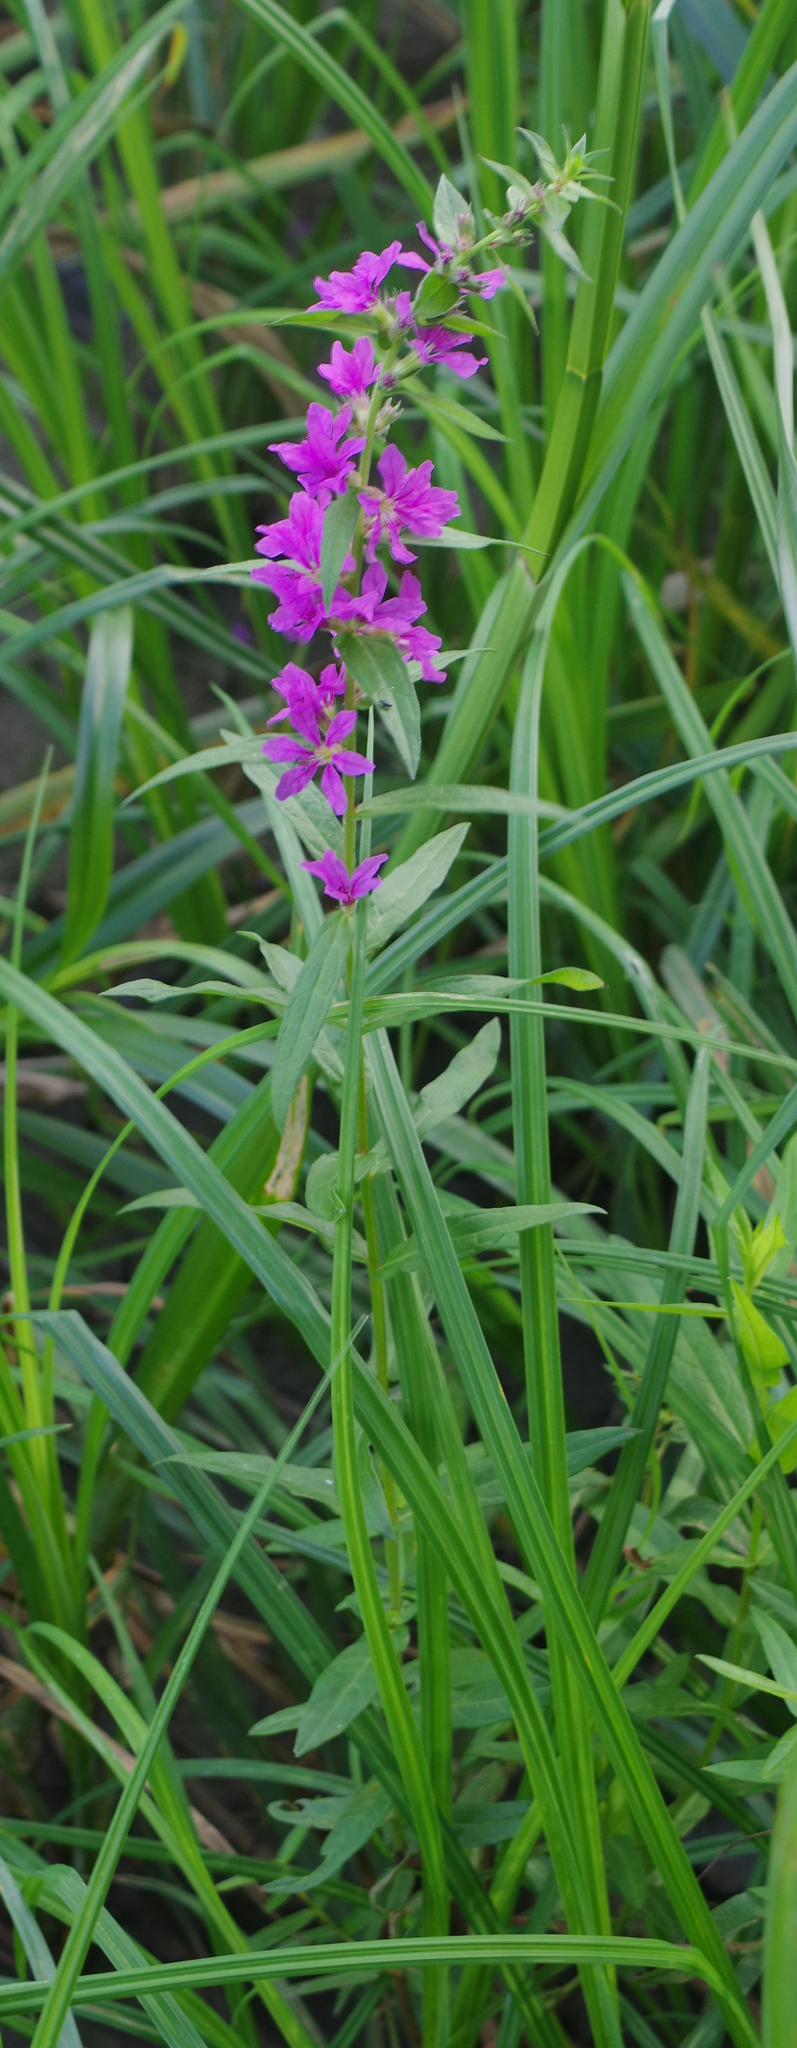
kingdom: Plantae
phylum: Tracheophyta
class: Magnoliopsida
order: Myrtales
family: Lythraceae
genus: Lythrum
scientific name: Lythrum salicaria
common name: Purple loosestrife
